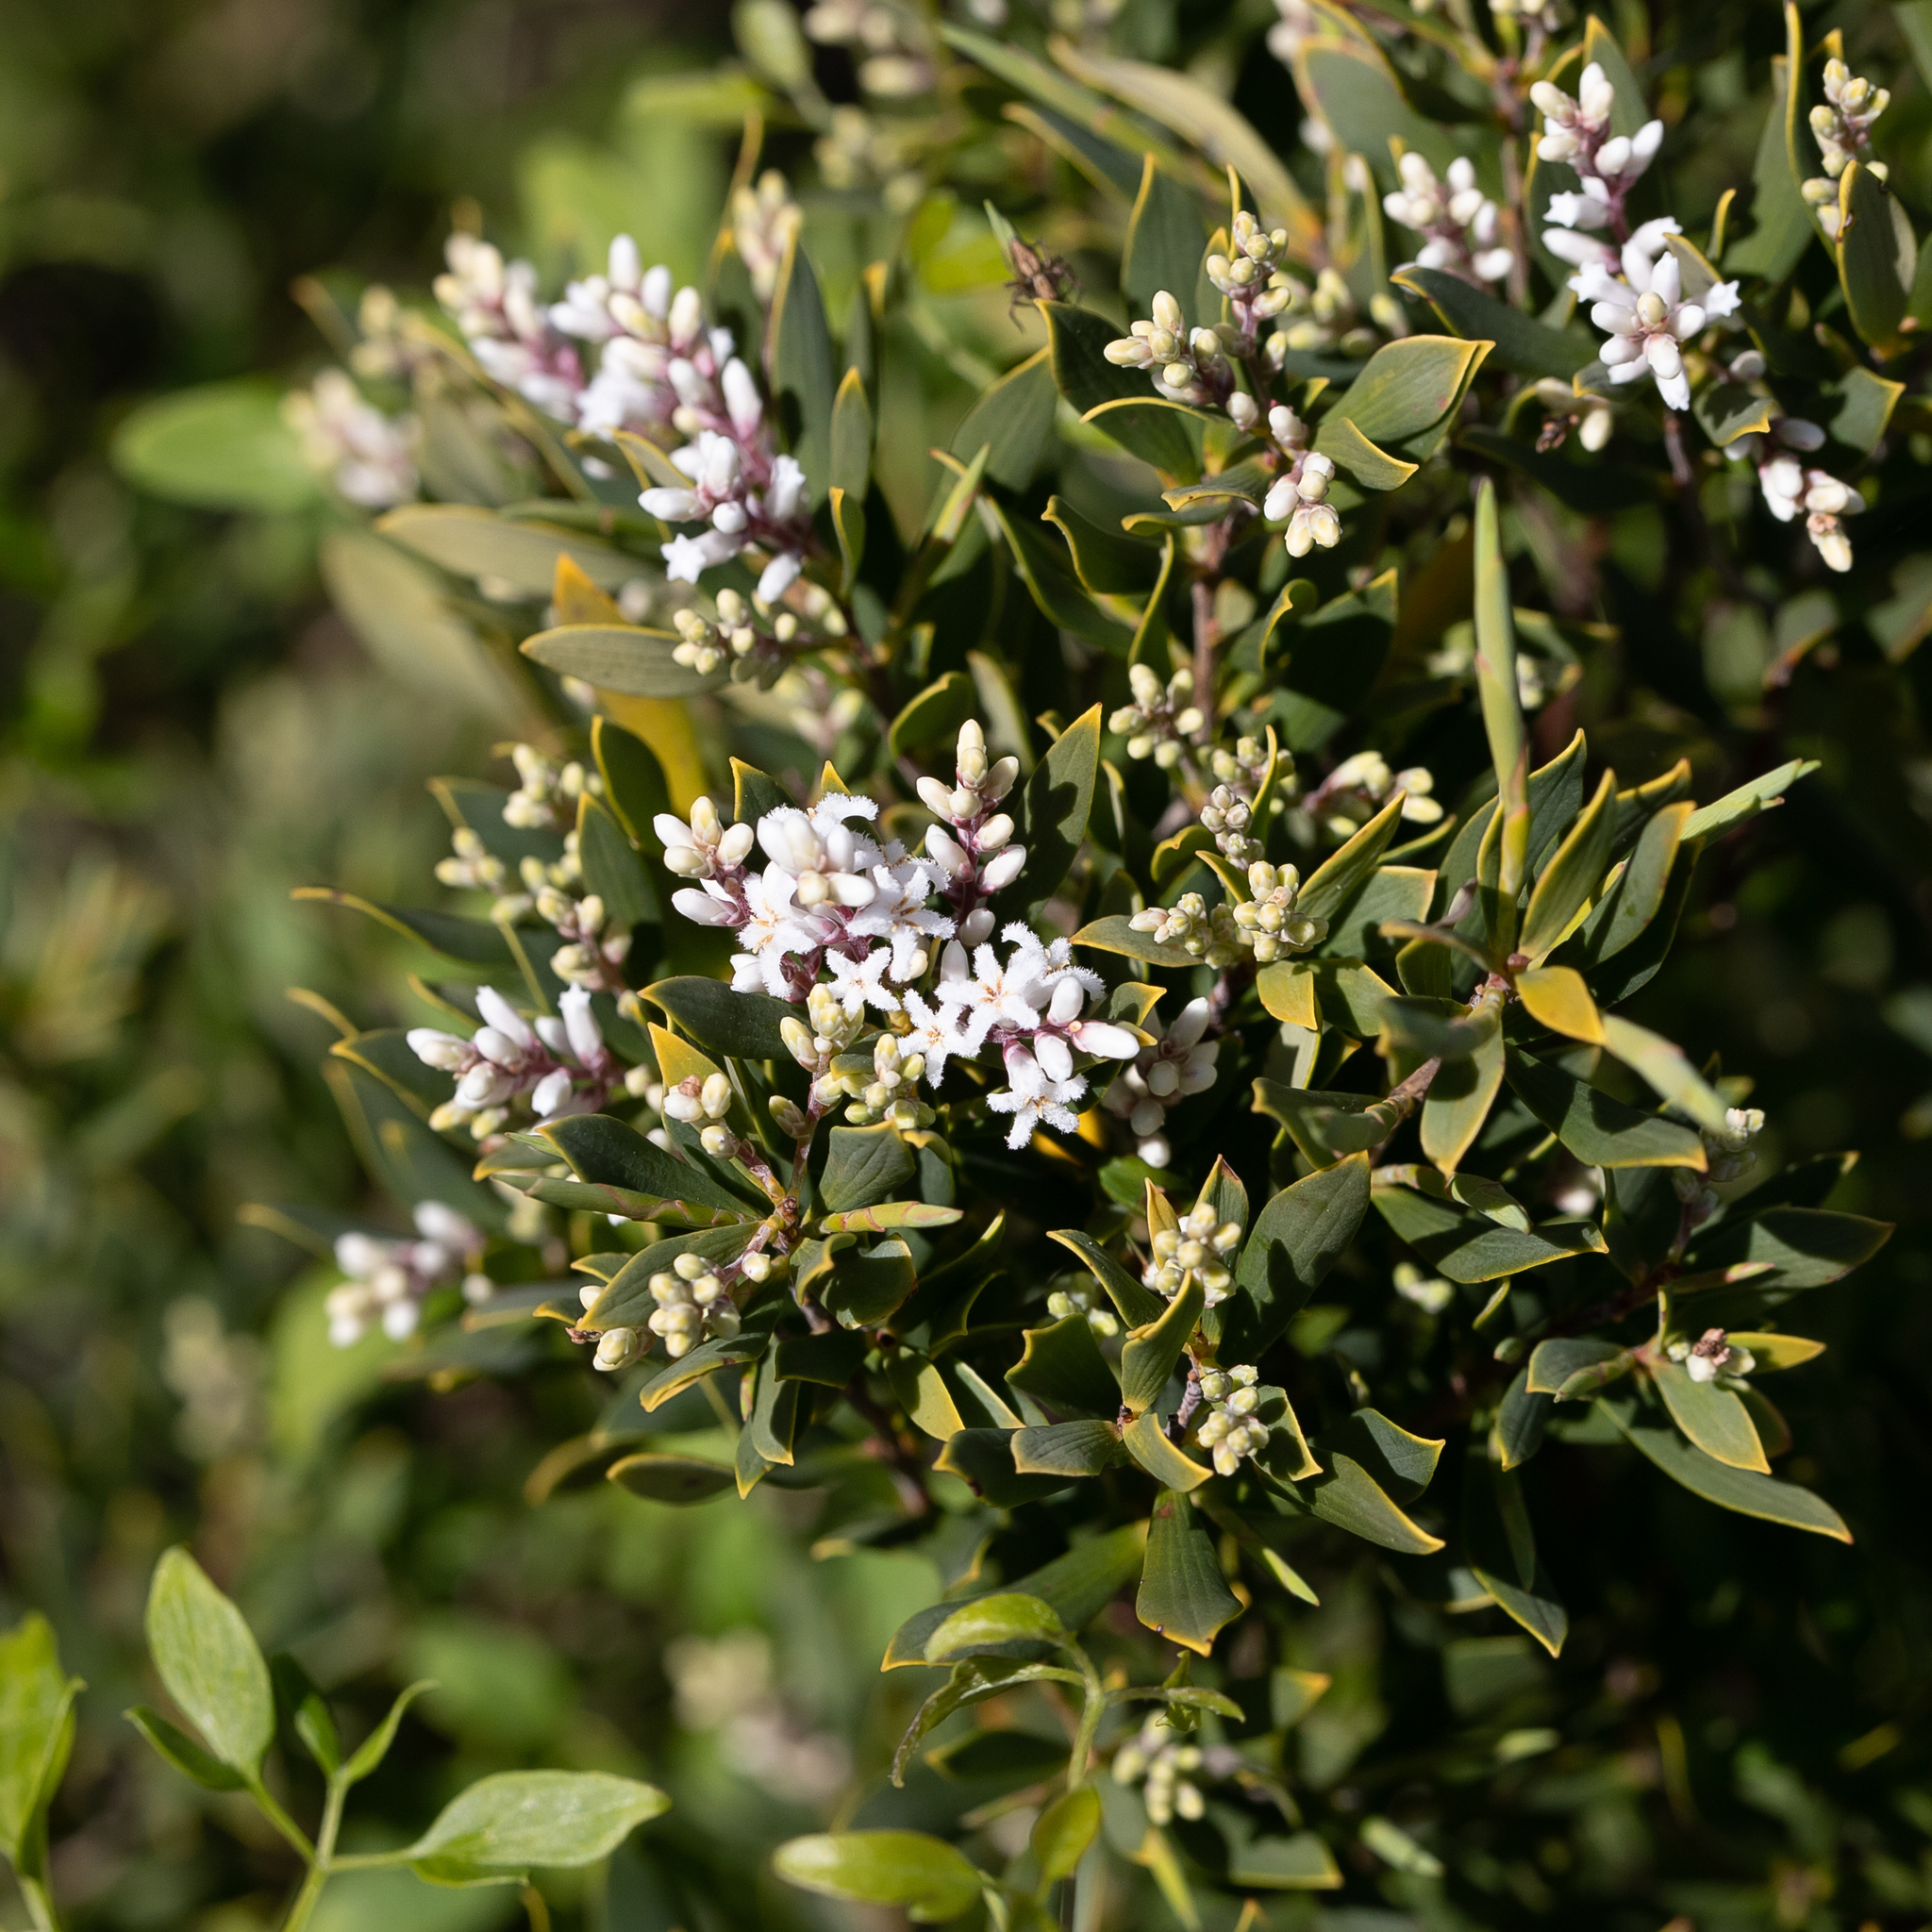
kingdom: Plantae
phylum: Tracheophyta
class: Magnoliopsida
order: Ericales
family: Ericaceae
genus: Leptecophylla
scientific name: Leptecophylla parvifolia
